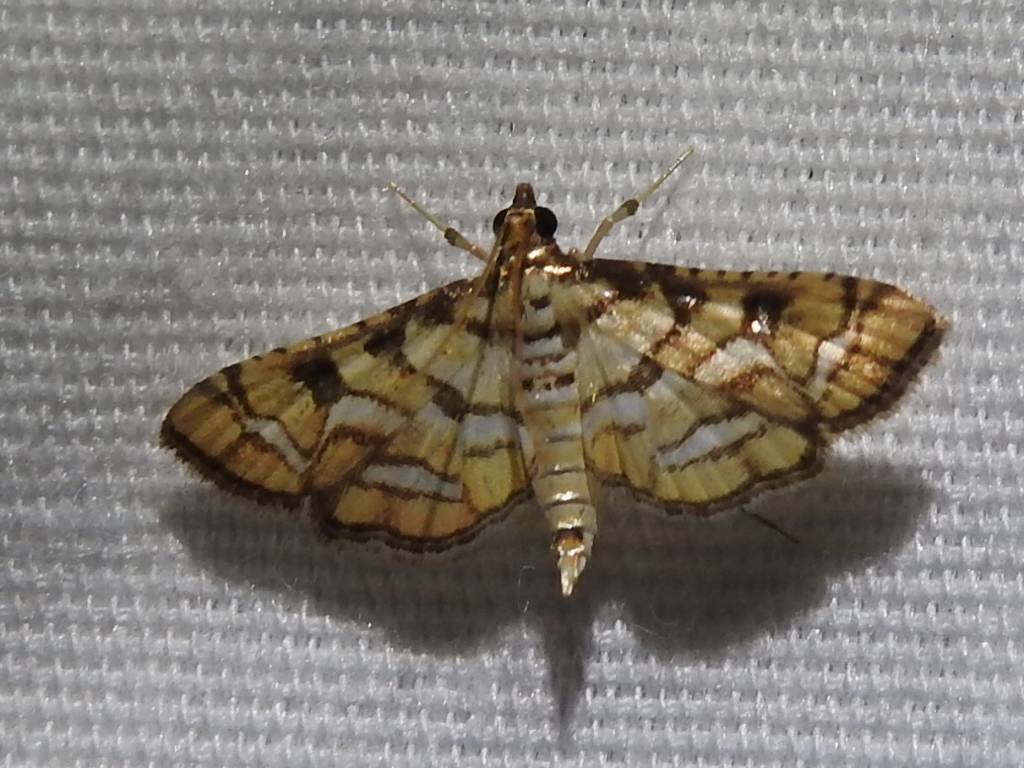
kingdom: Animalia
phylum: Arthropoda
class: Insecta
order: Lepidoptera
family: Crambidae
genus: Hileithia
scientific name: Hileithia magualis
